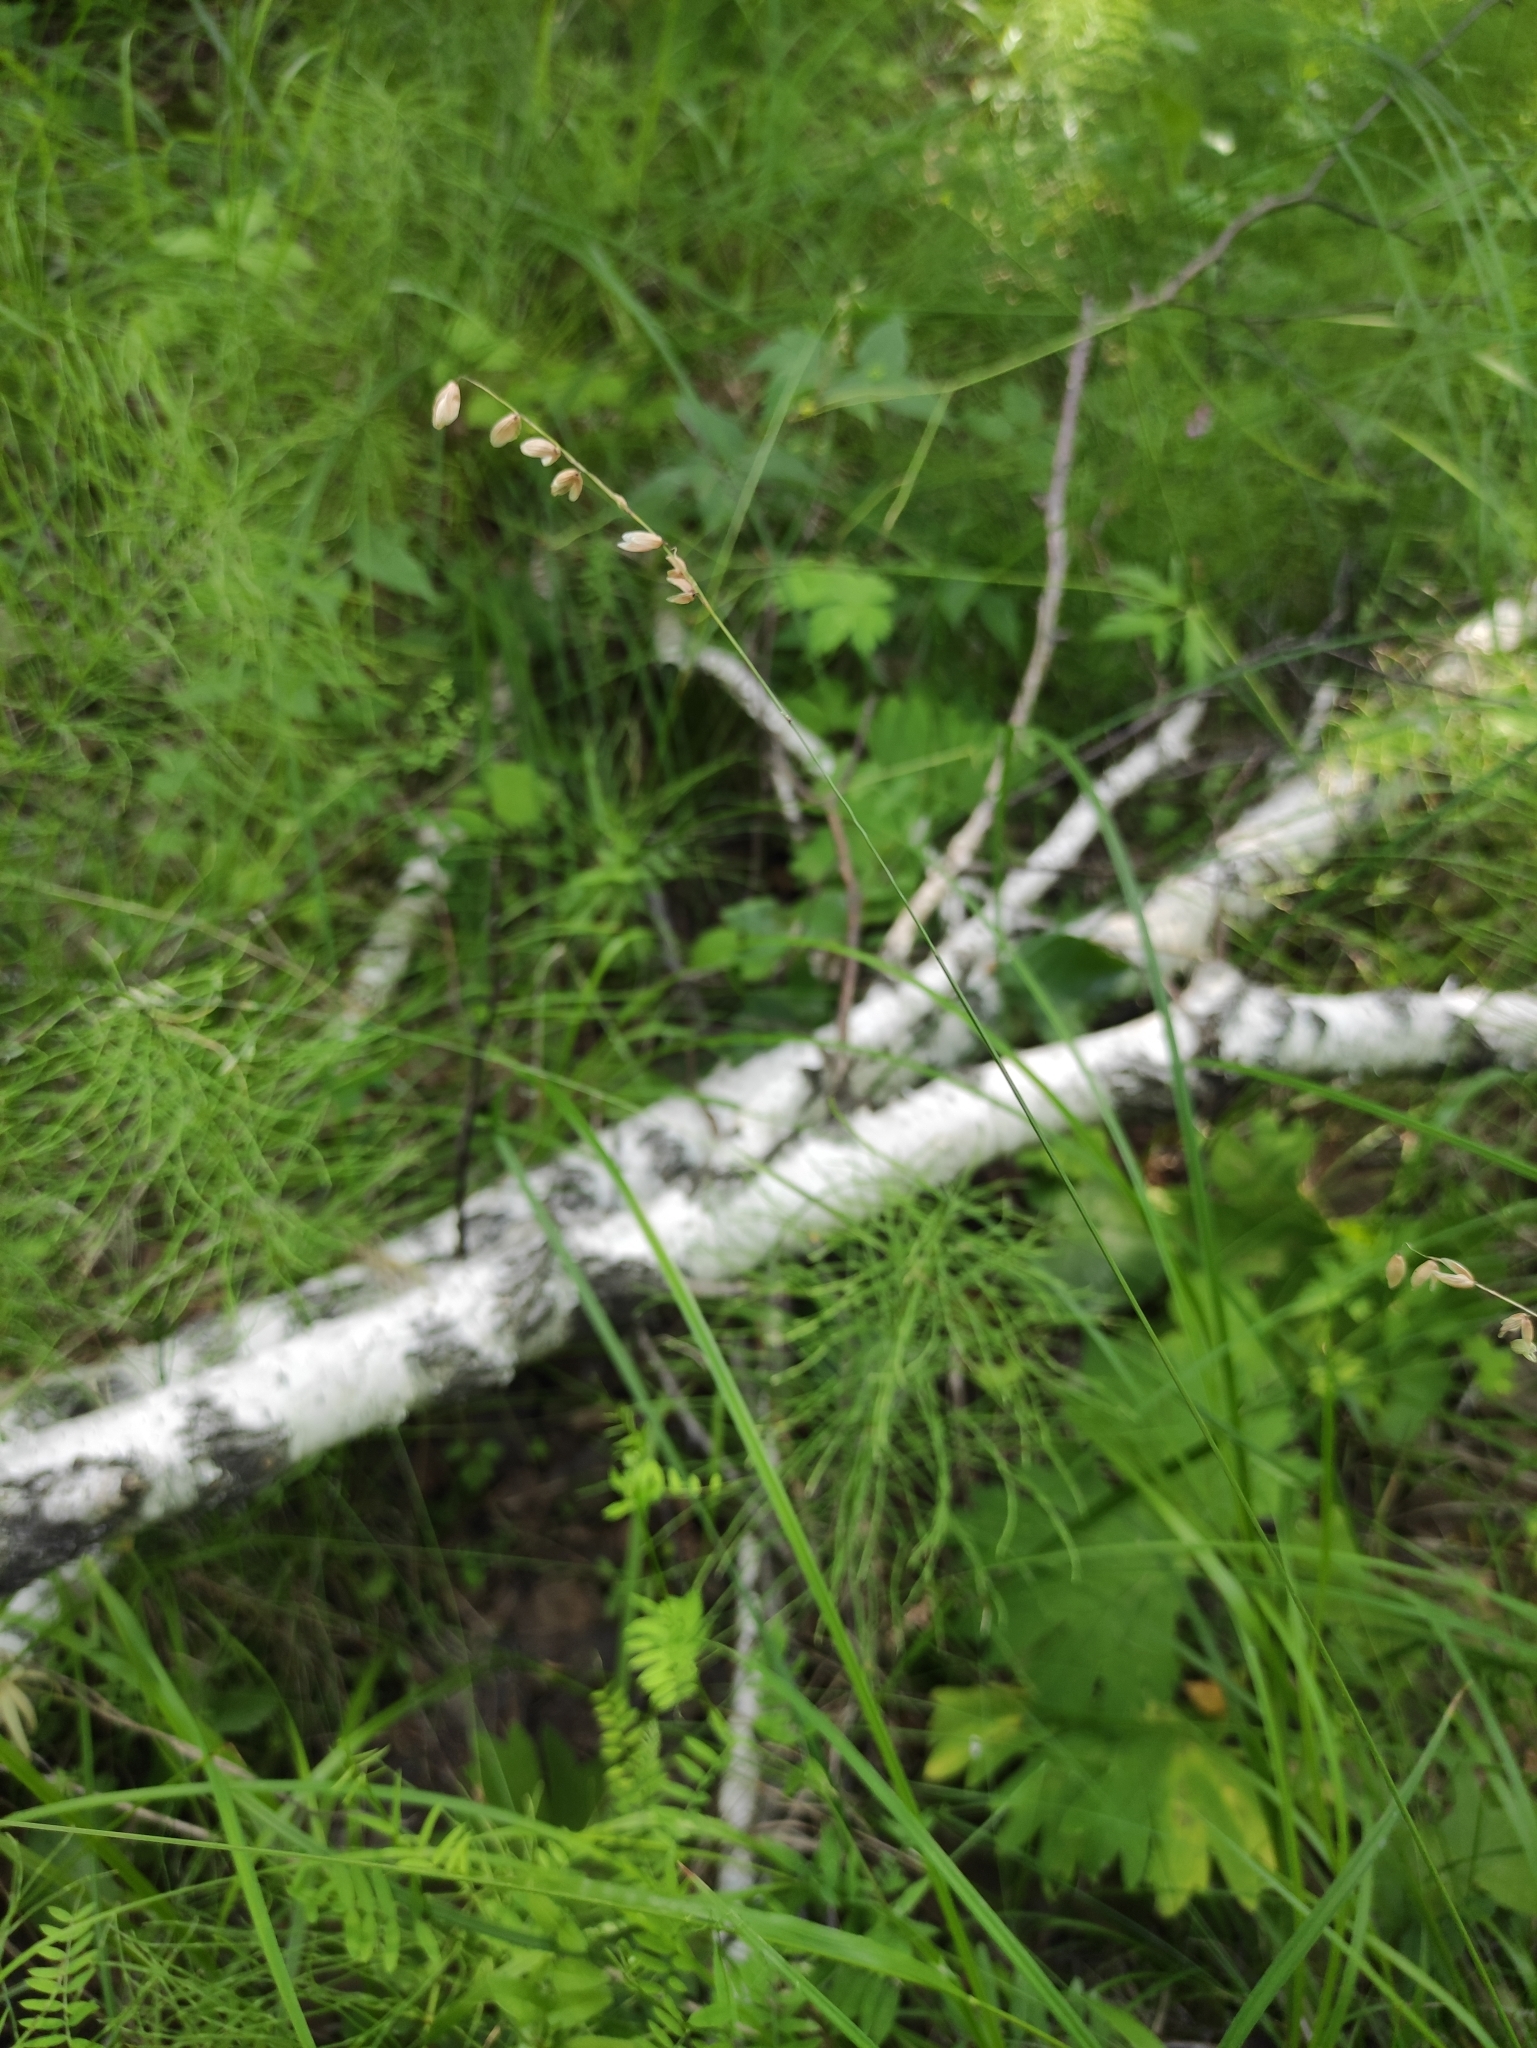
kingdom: Plantae
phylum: Tracheophyta
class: Liliopsida
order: Poales
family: Poaceae
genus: Melica
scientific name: Melica nutans
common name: Mountain melick
